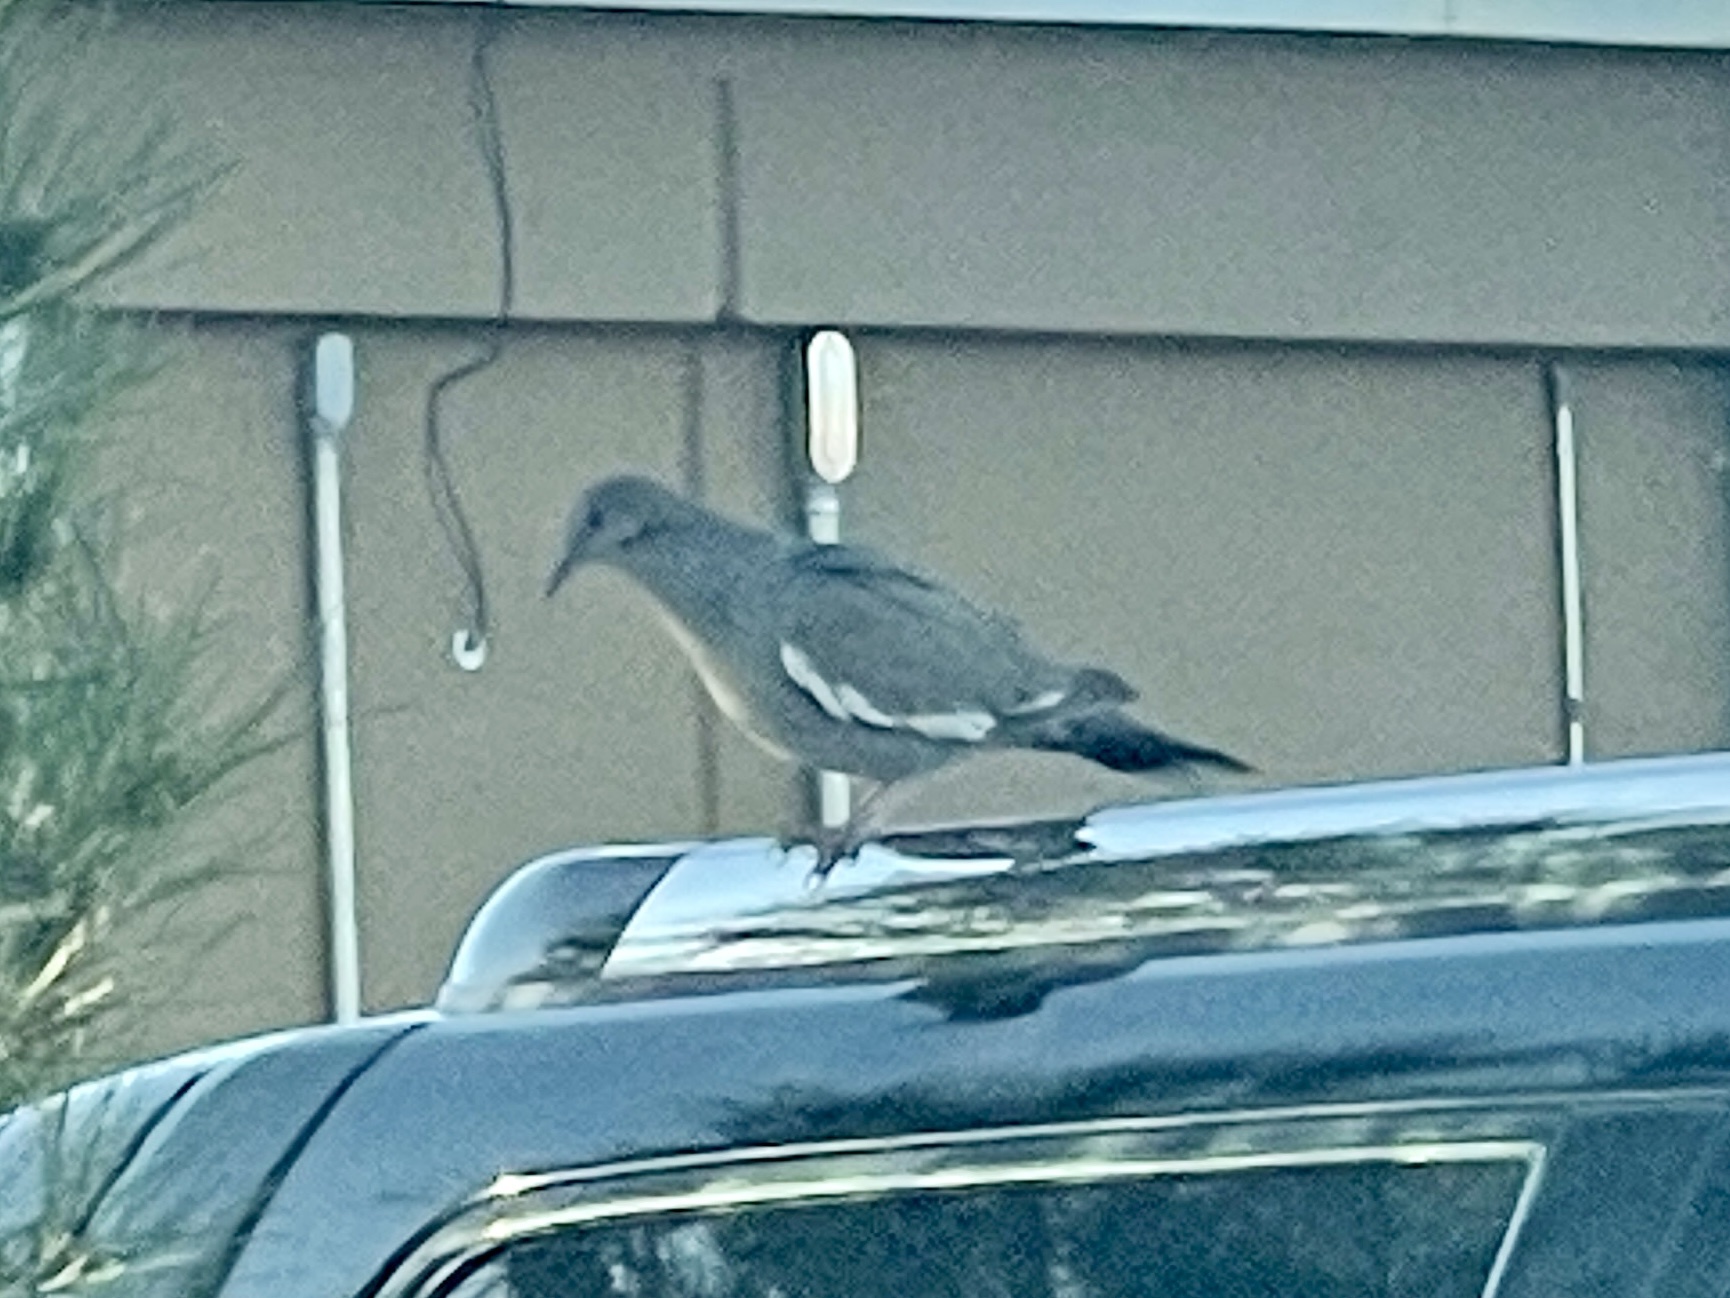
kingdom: Animalia
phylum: Chordata
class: Aves
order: Columbiformes
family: Columbidae
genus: Zenaida
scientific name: Zenaida asiatica
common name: White-winged dove
